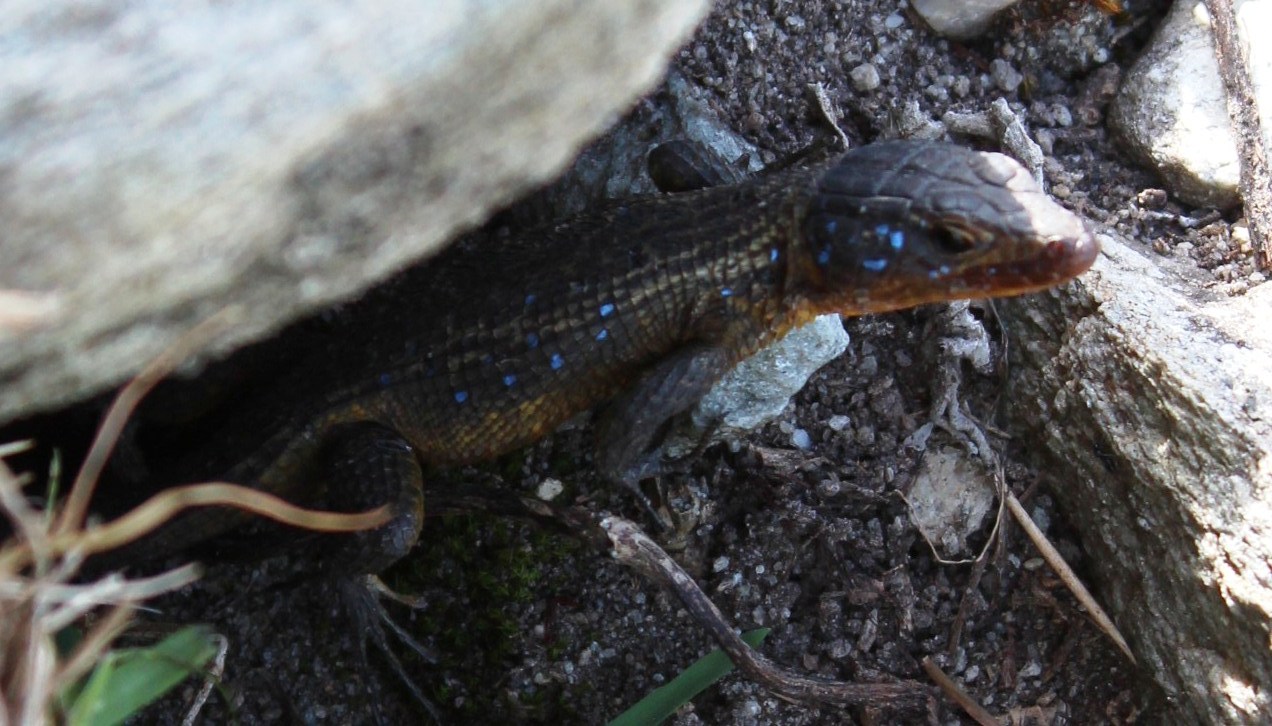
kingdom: Animalia
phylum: Chordata
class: Squamata
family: Cordylidae
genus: Ninurta
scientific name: Ninurta coeruleopunctatus
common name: Blue-spotted girdled lizard
